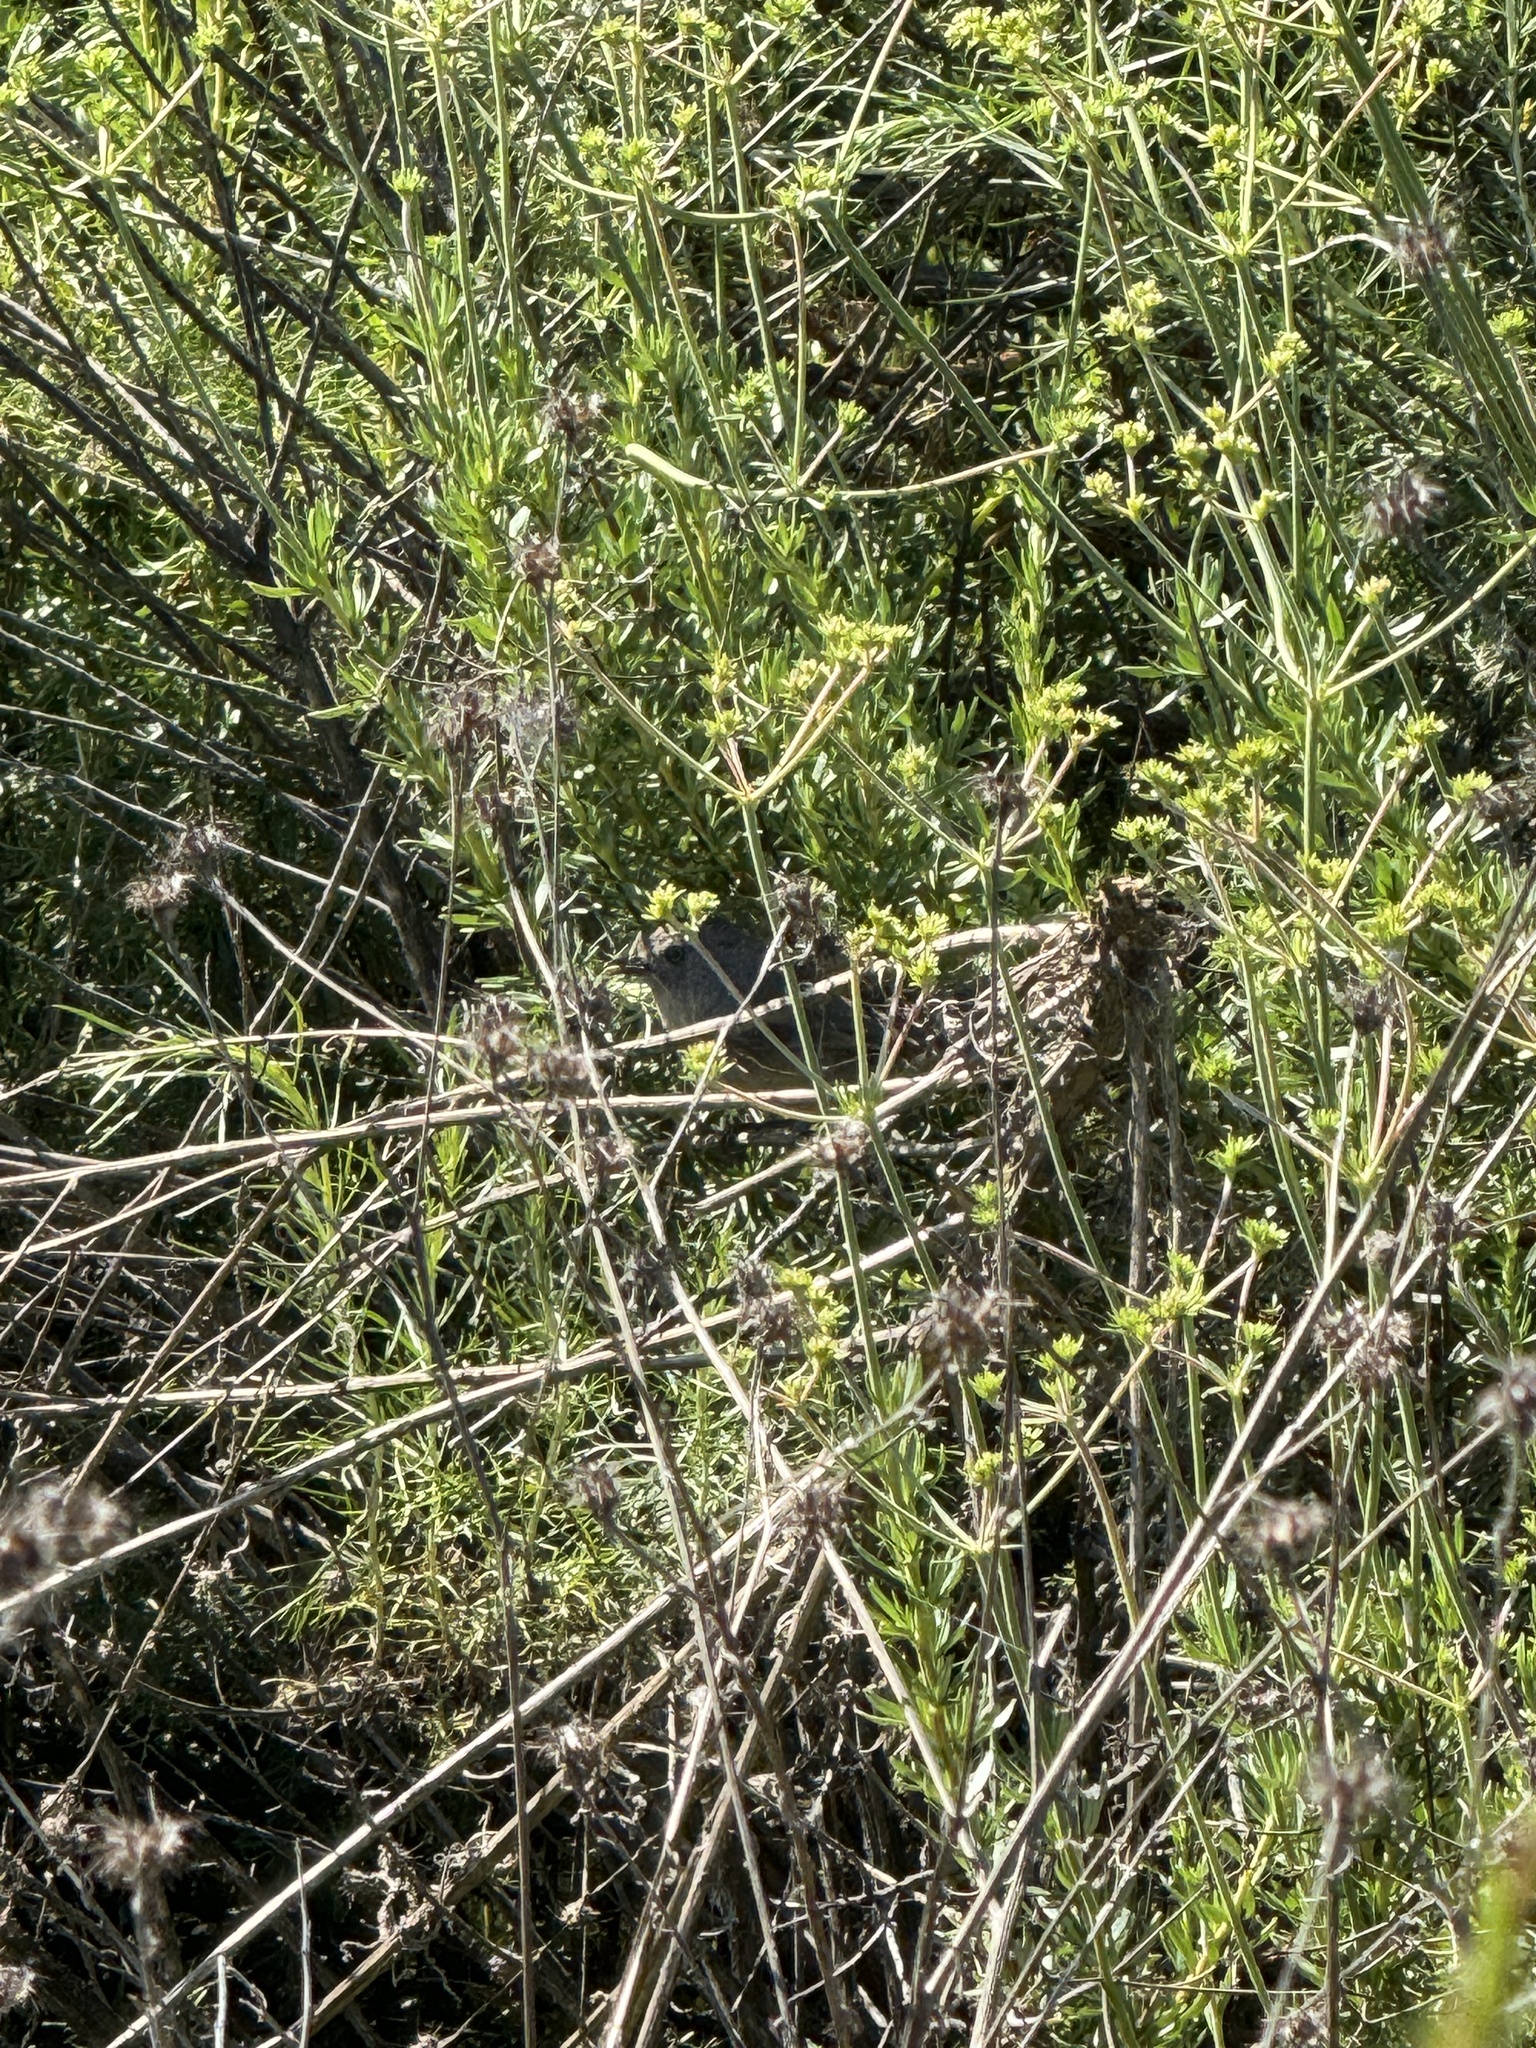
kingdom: Animalia
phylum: Chordata
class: Aves
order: Passeriformes
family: Sylviidae
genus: Chamaea
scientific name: Chamaea fasciata
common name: Wrentit
